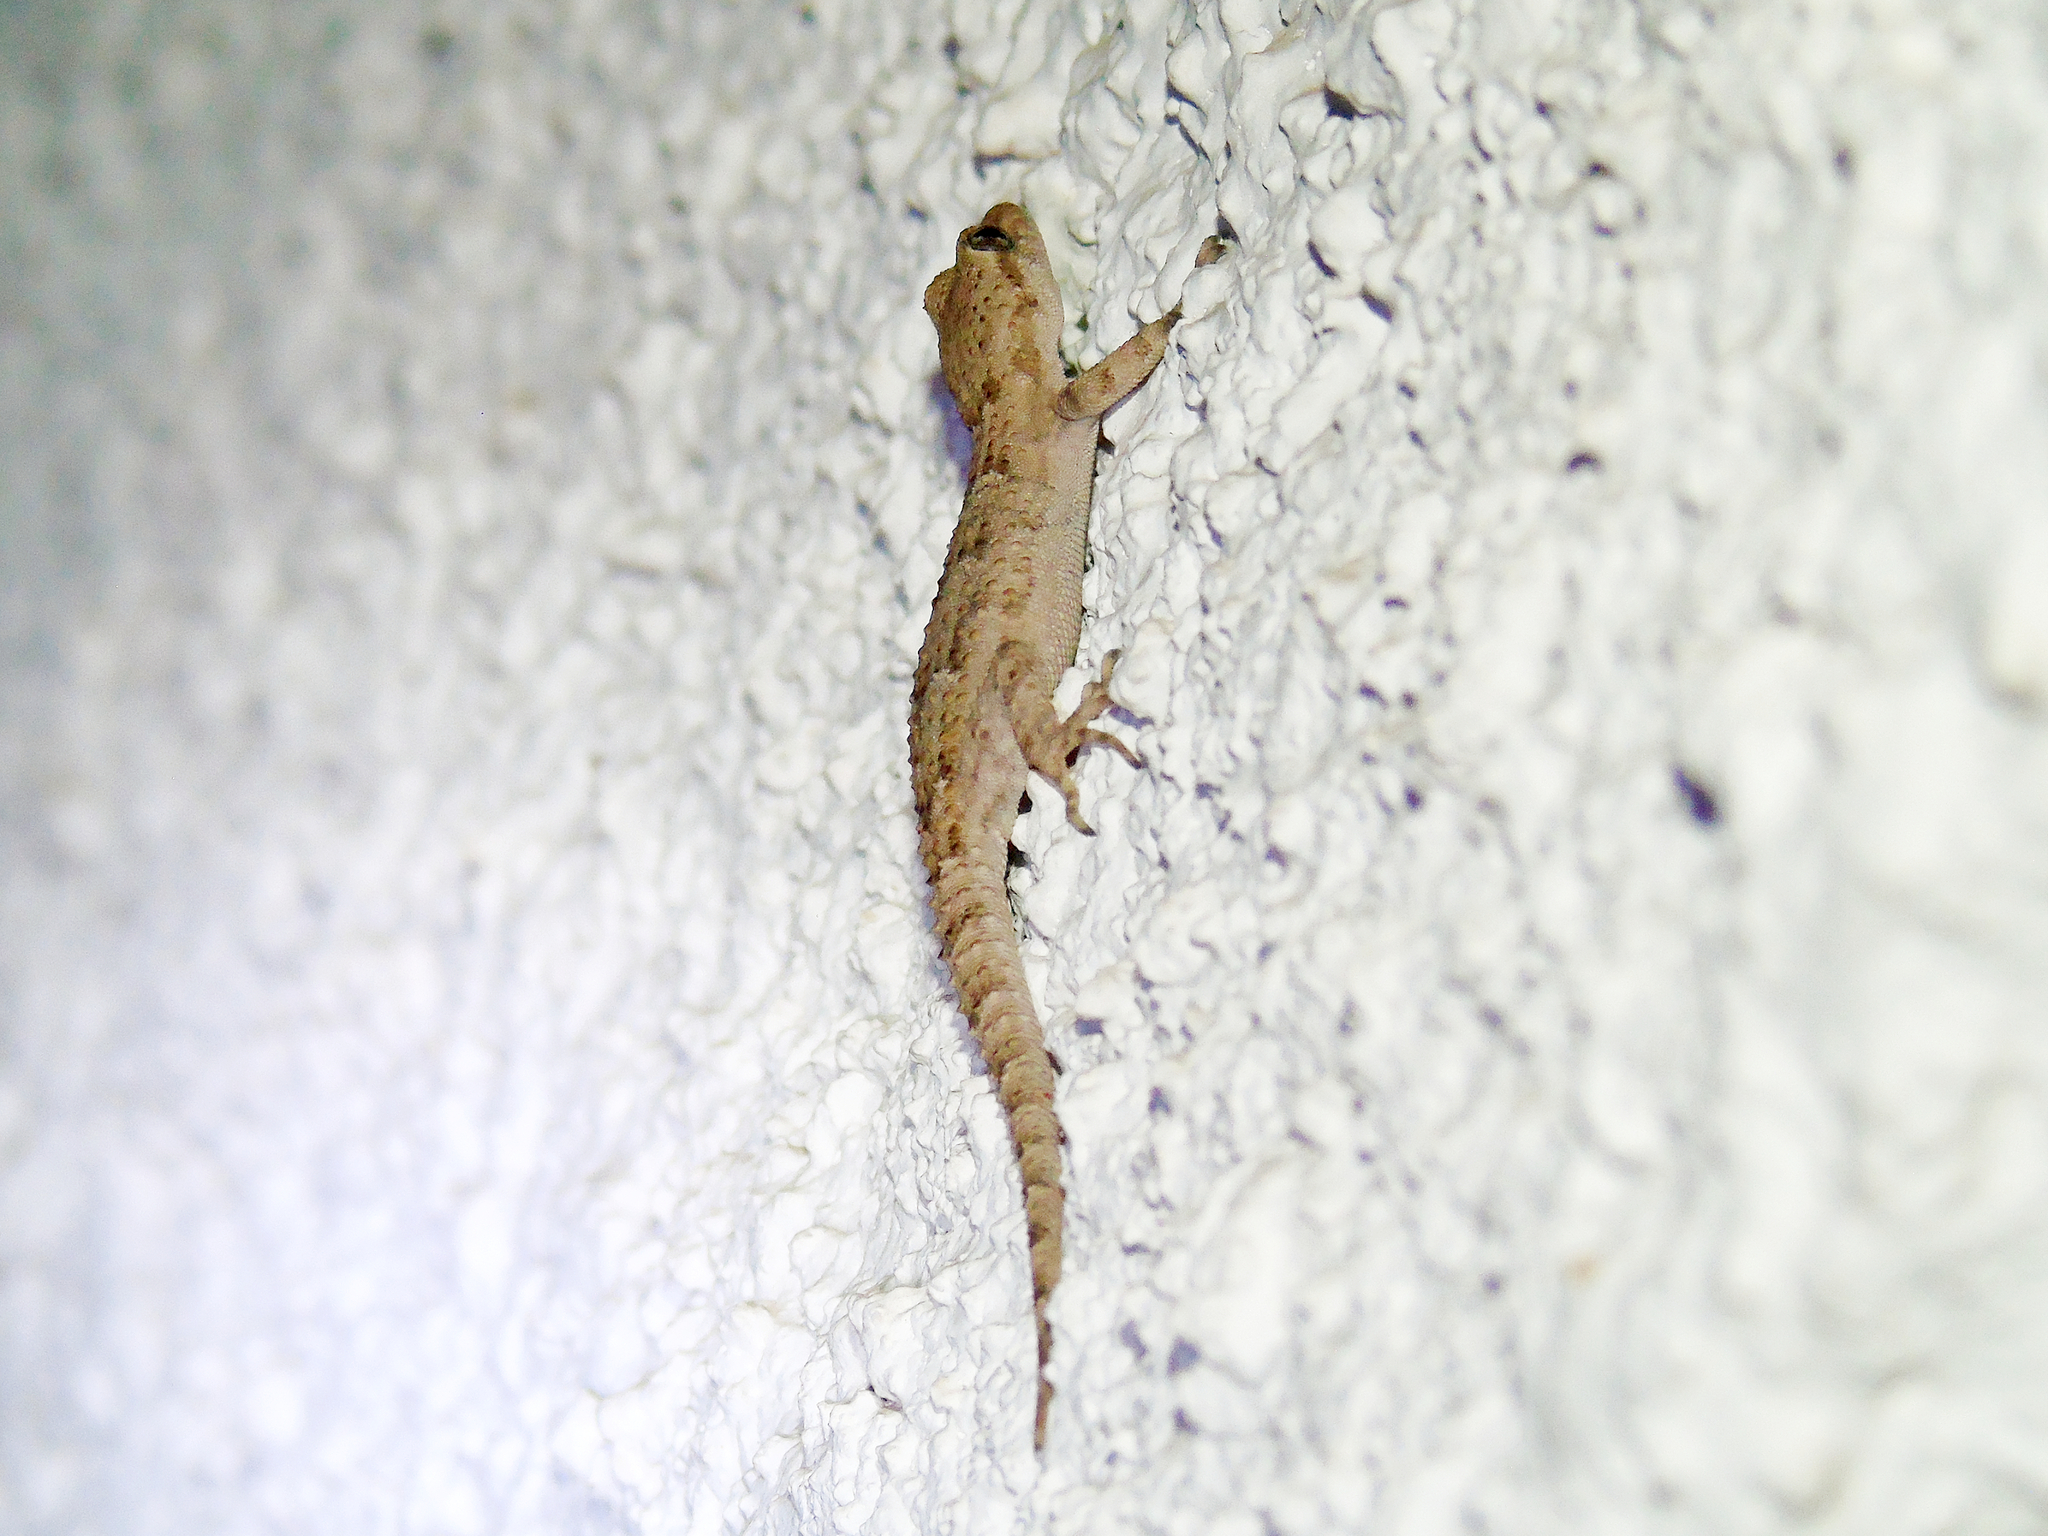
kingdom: Animalia
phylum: Chordata
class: Squamata
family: Gekkonidae
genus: Mediodactylus
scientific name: Mediodactylus kotschyi
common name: Kotschy's gecko
